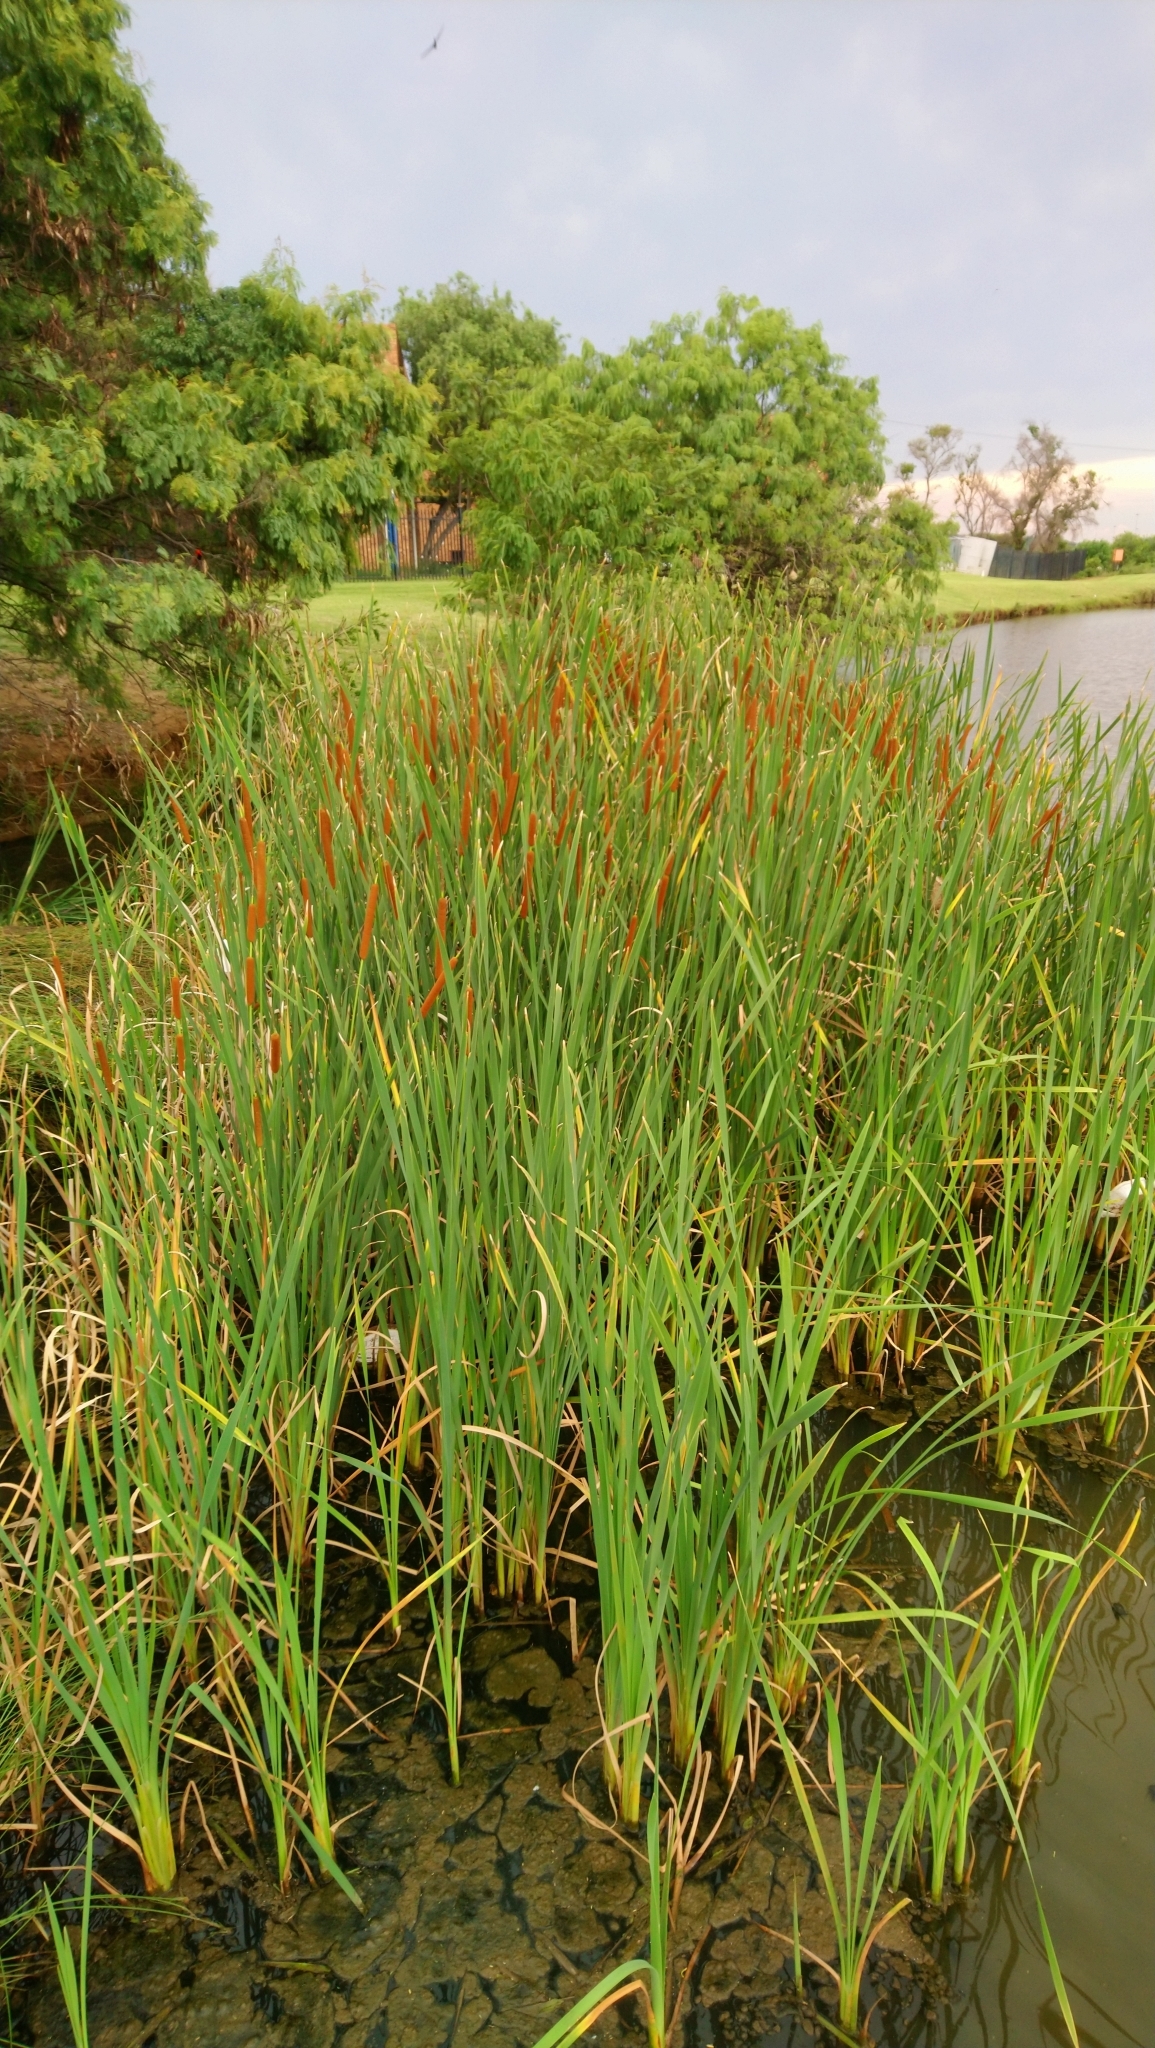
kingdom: Plantae
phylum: Tracheophyta
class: Liliopsida
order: Poales
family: Typhaceae
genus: Typha
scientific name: Typha domingensis
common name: Southern cattail
